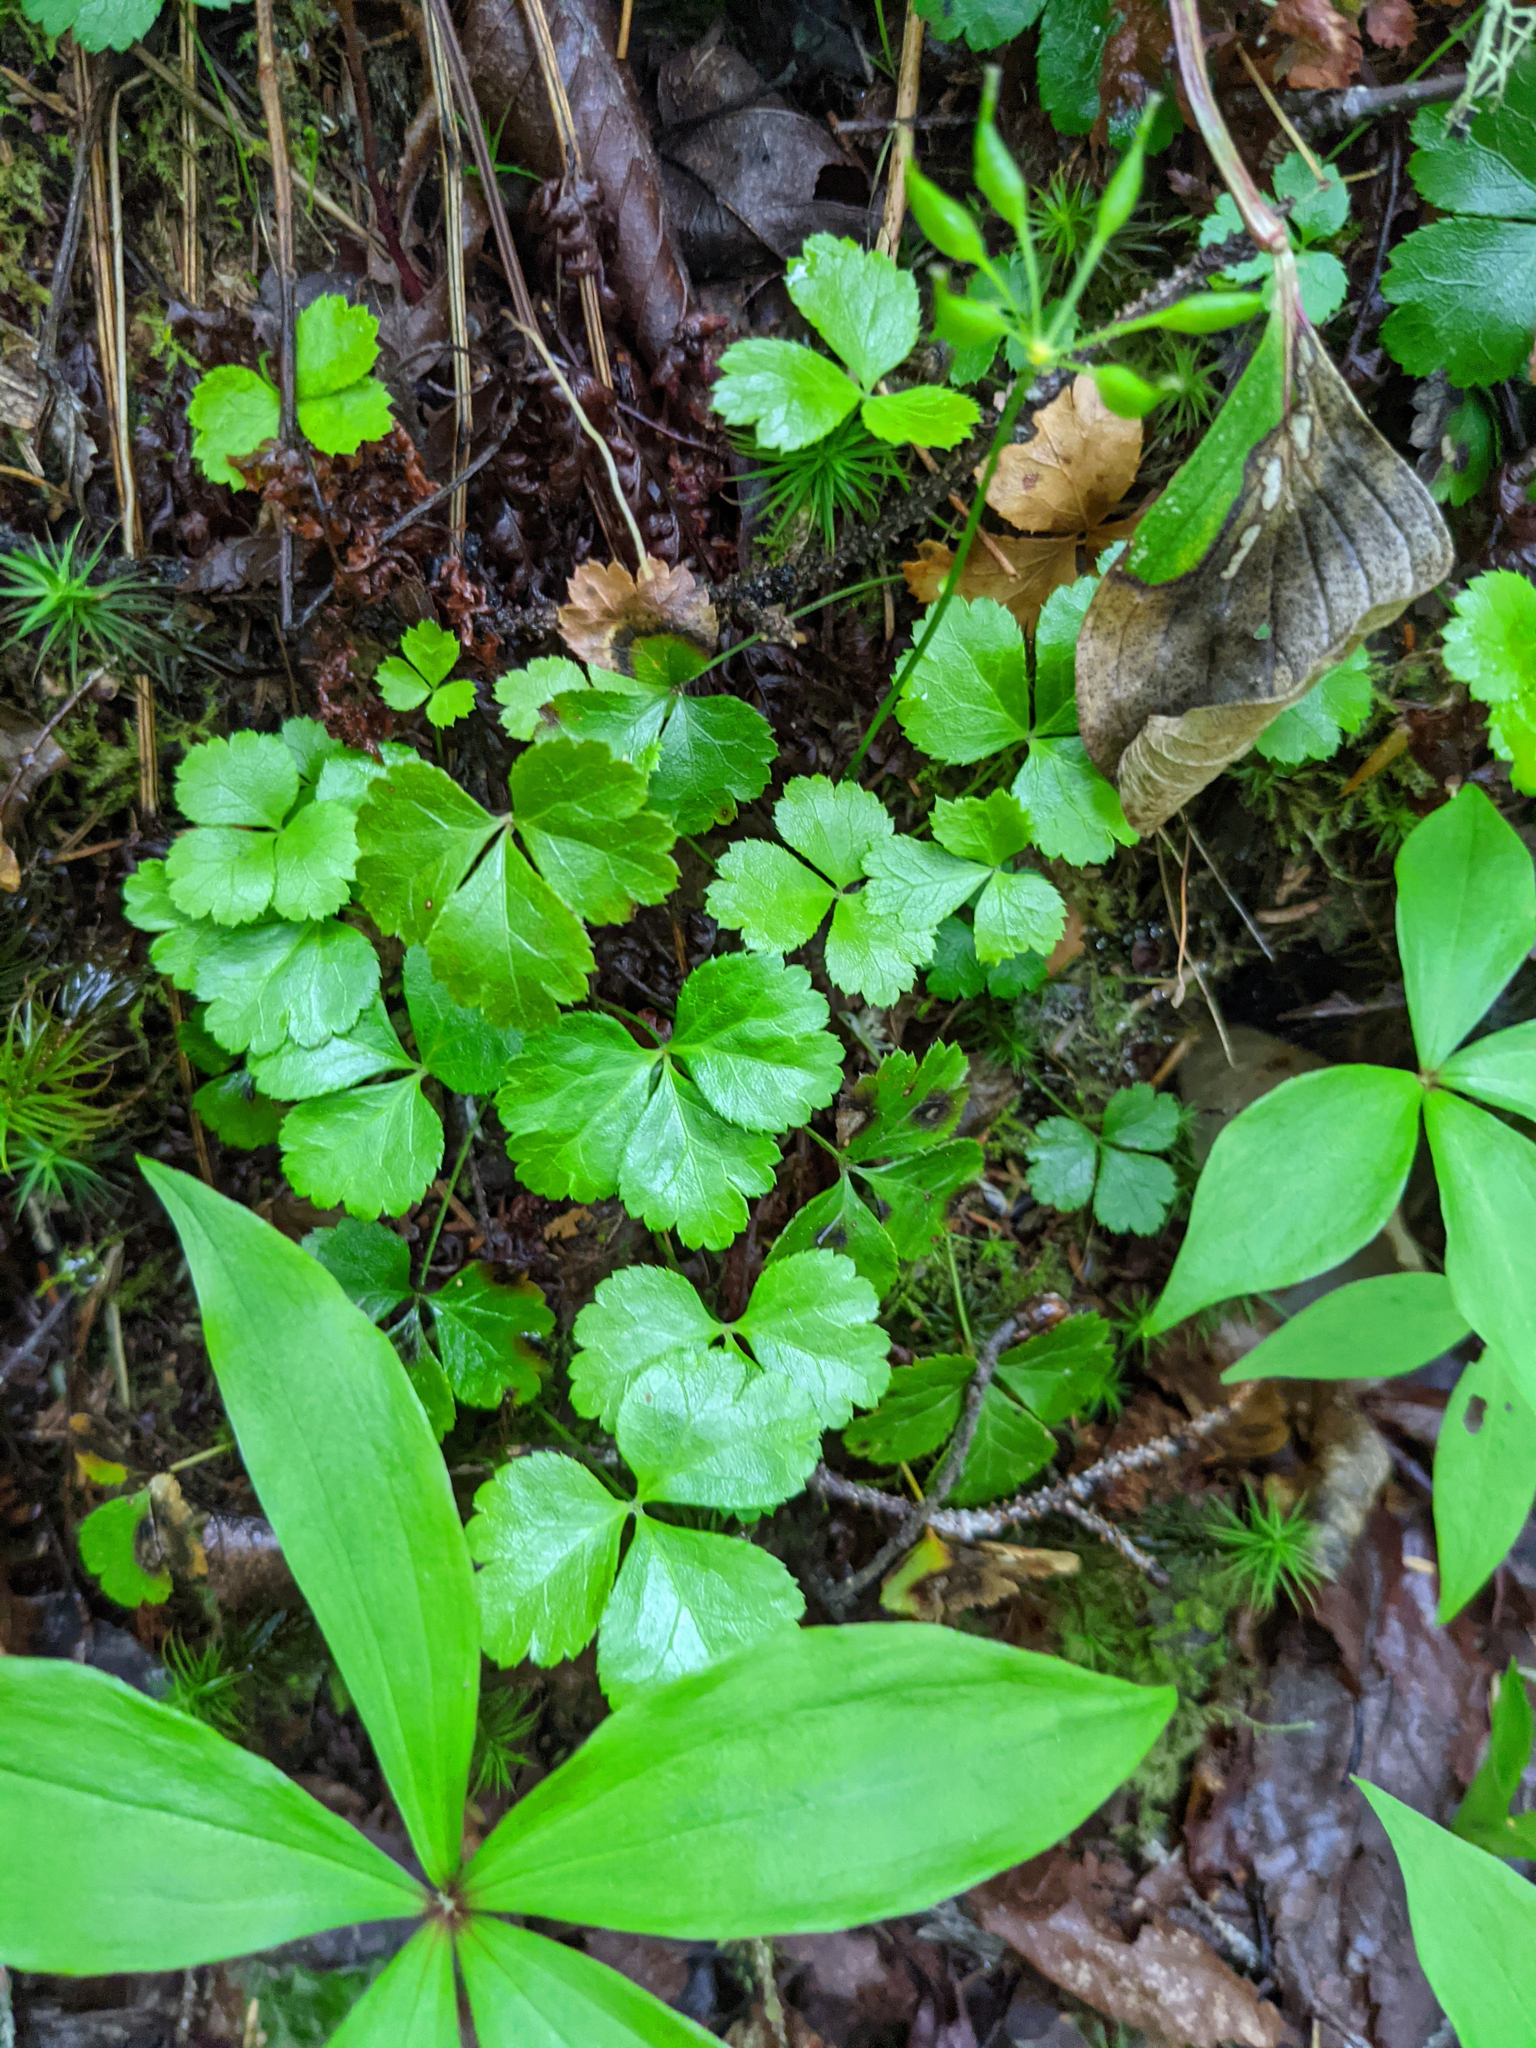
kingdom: Plantae
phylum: Tracheophyta
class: Magnoliopsida
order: Ranunculales
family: Ranunculaceae
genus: Coptis
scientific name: Coptis trifolia
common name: Canker-root
